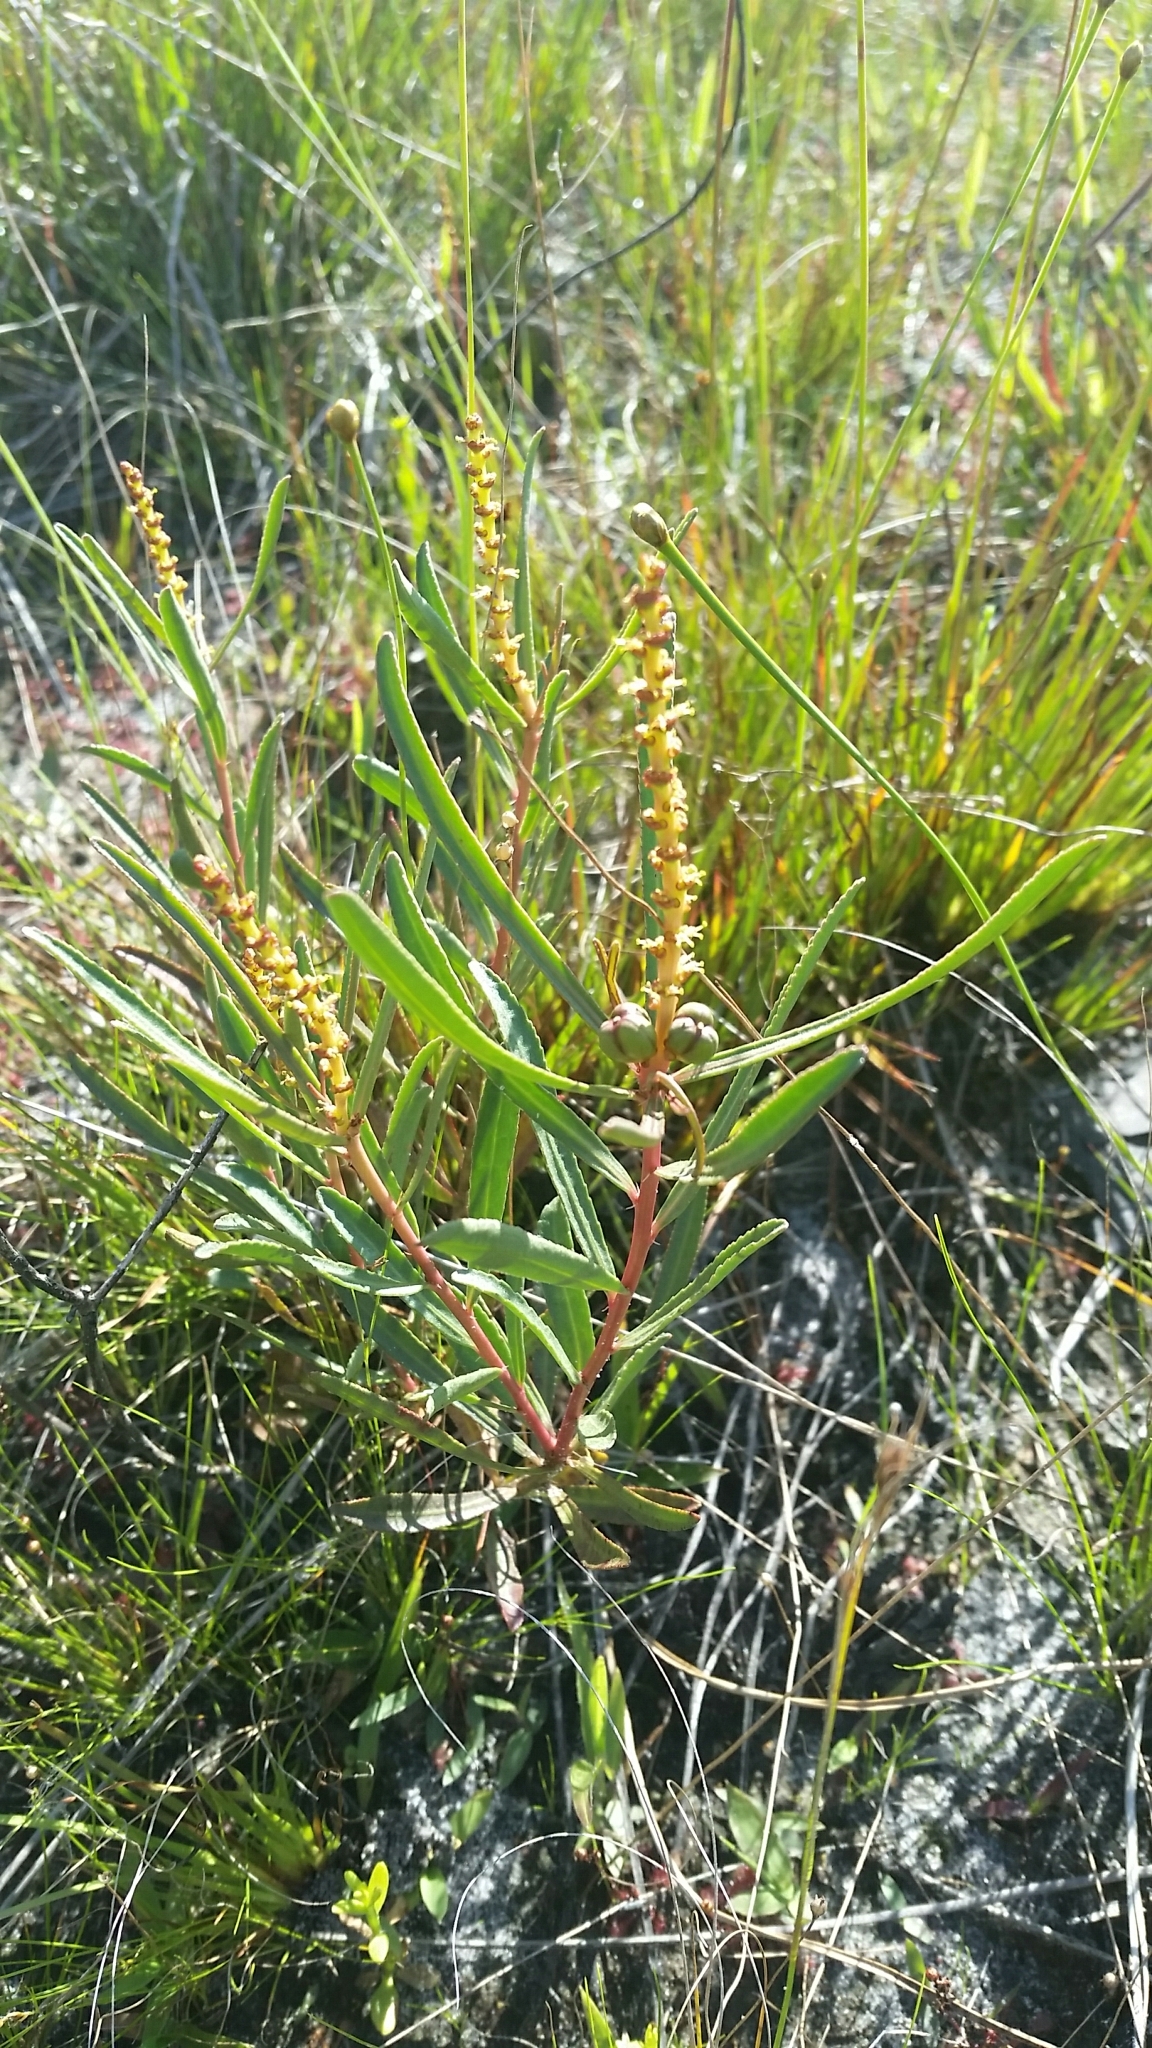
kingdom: Plantae
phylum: Tracheophyta
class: Magnoliopsida
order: Malpighiales
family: Euphorbiaceae
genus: Stillingia
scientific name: Stillingia sylvatica
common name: Queen's-delight
